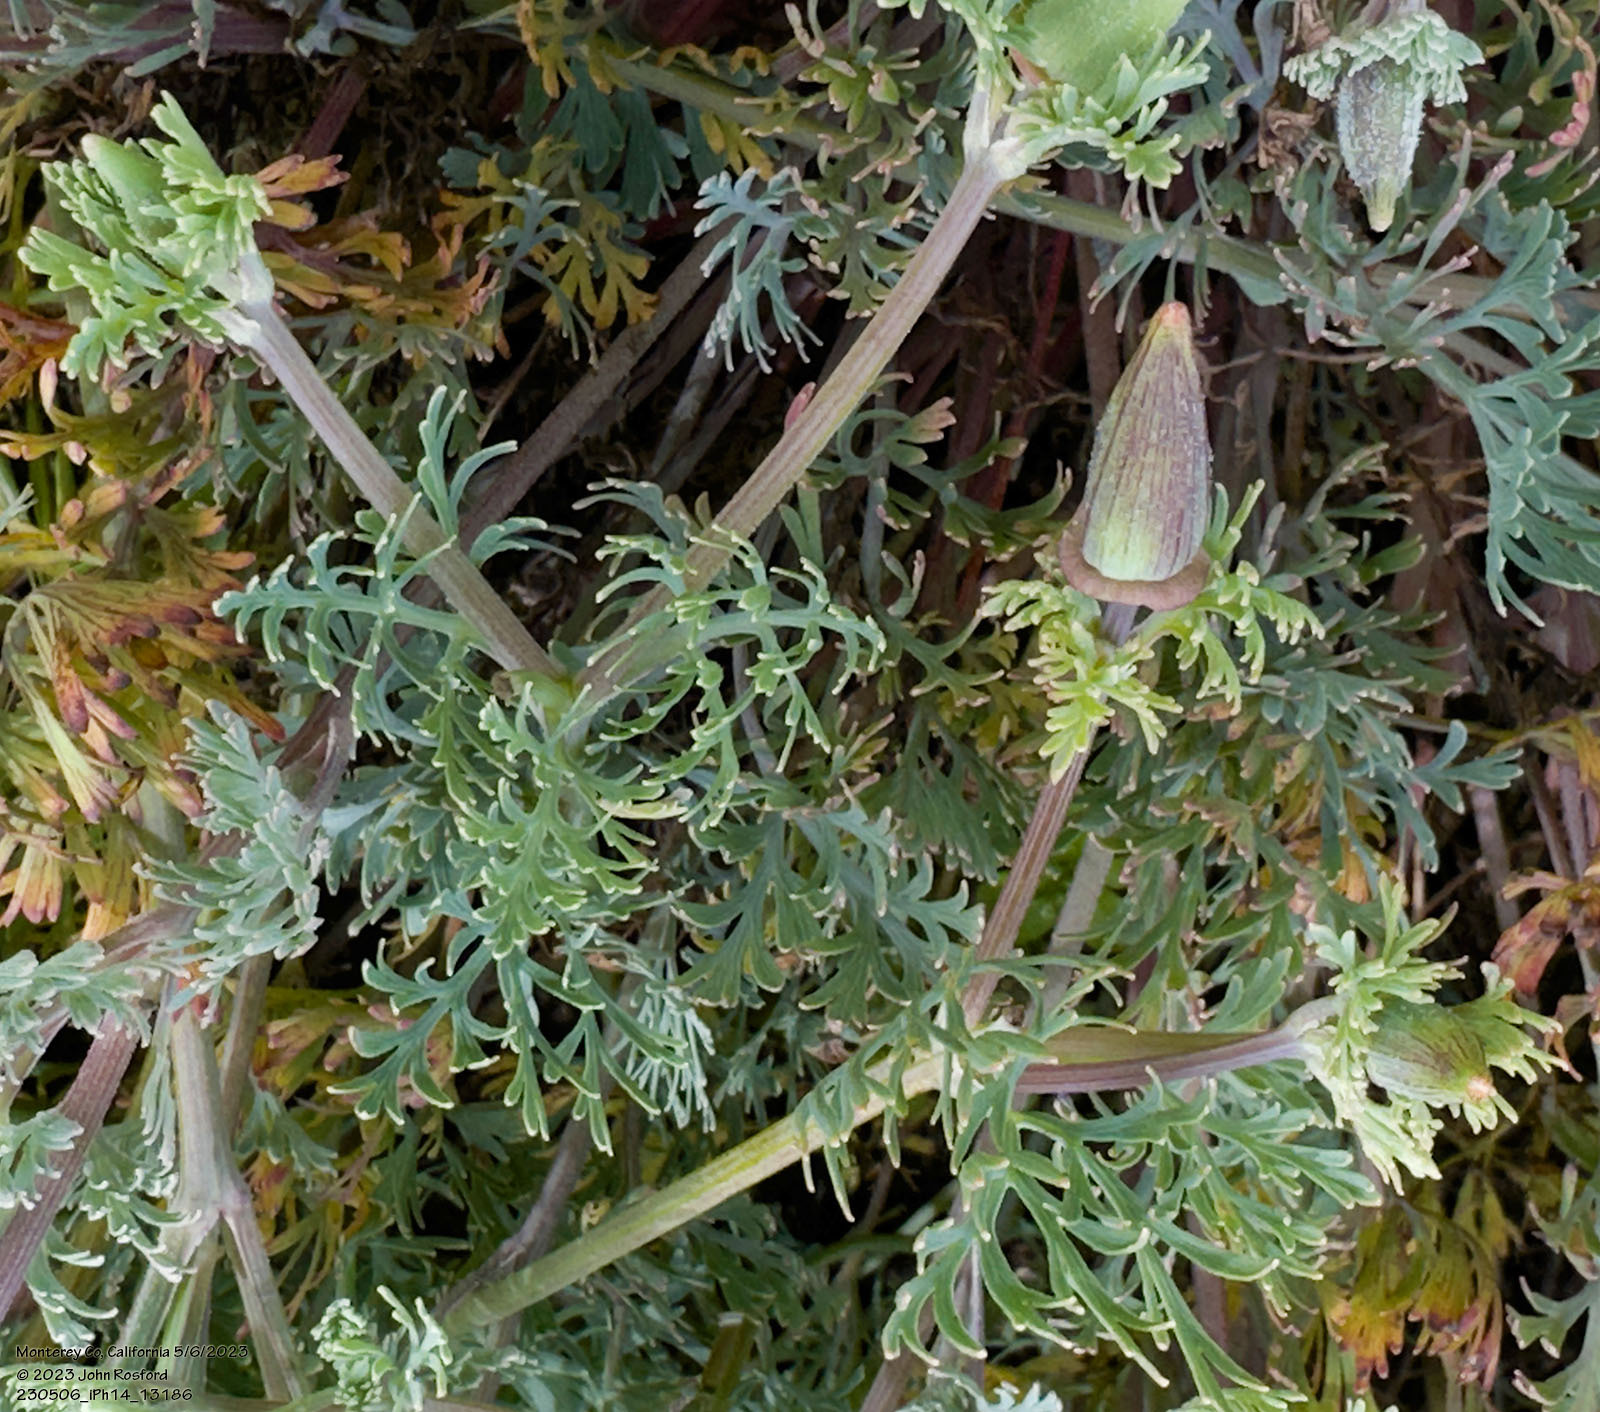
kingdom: Plantae
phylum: Tracheophyta
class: Magnoliopsida
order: Ranunculales
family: Papaveraceae
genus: Eschscholzia
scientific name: Eschscholzia californica
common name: California poppy
